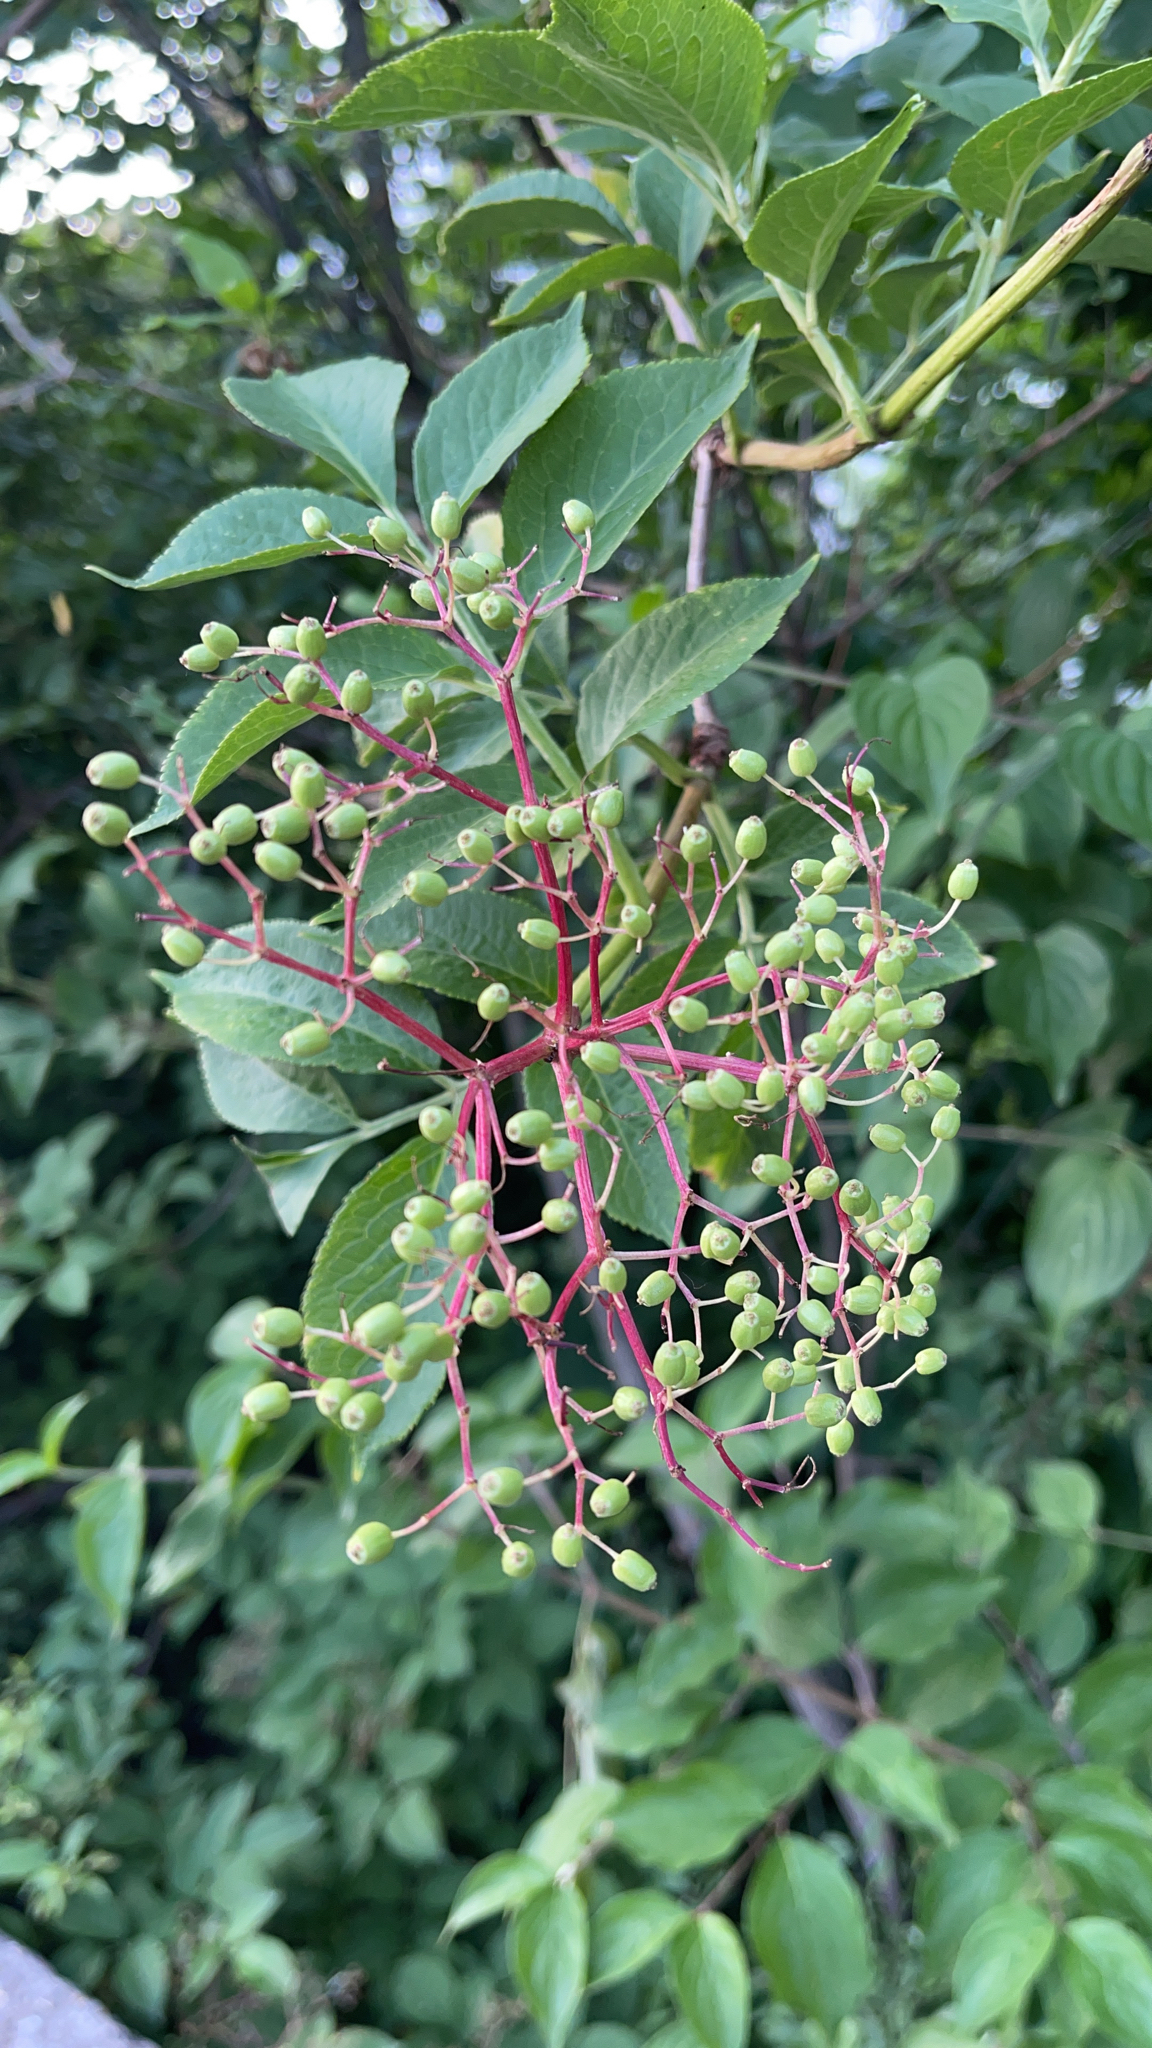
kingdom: Plantae
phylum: Tracheophyta
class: Magnoliopsida
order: Dipsacales
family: Viburnaceae
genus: Sambucus
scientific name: Sambucus nigra
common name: Elder
